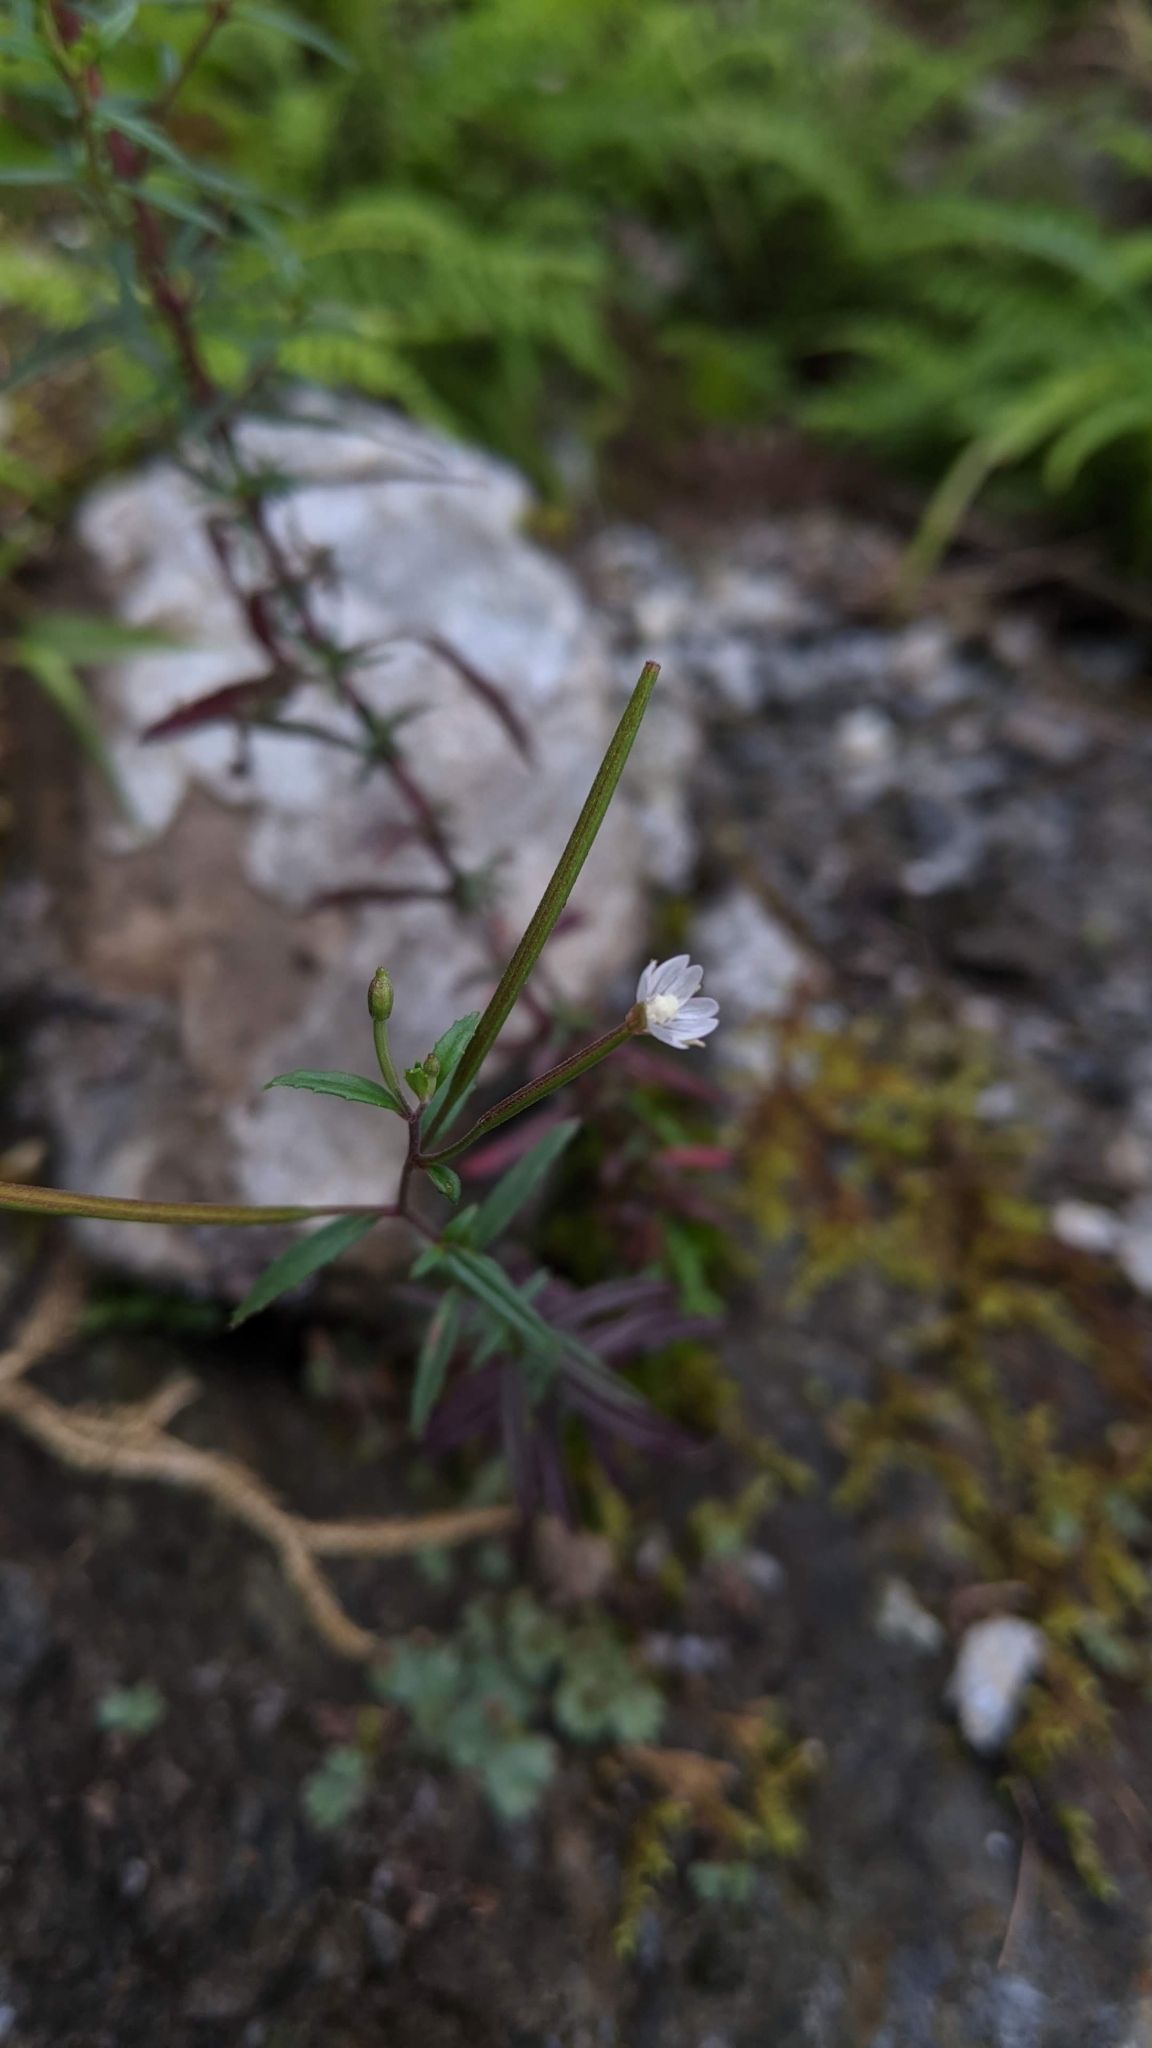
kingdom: Plantae
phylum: Tracheophyta
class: Magnoliopsida
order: Myrtales
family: Onagraceae
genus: Epilobium
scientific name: Epilobium platystigmatosum
